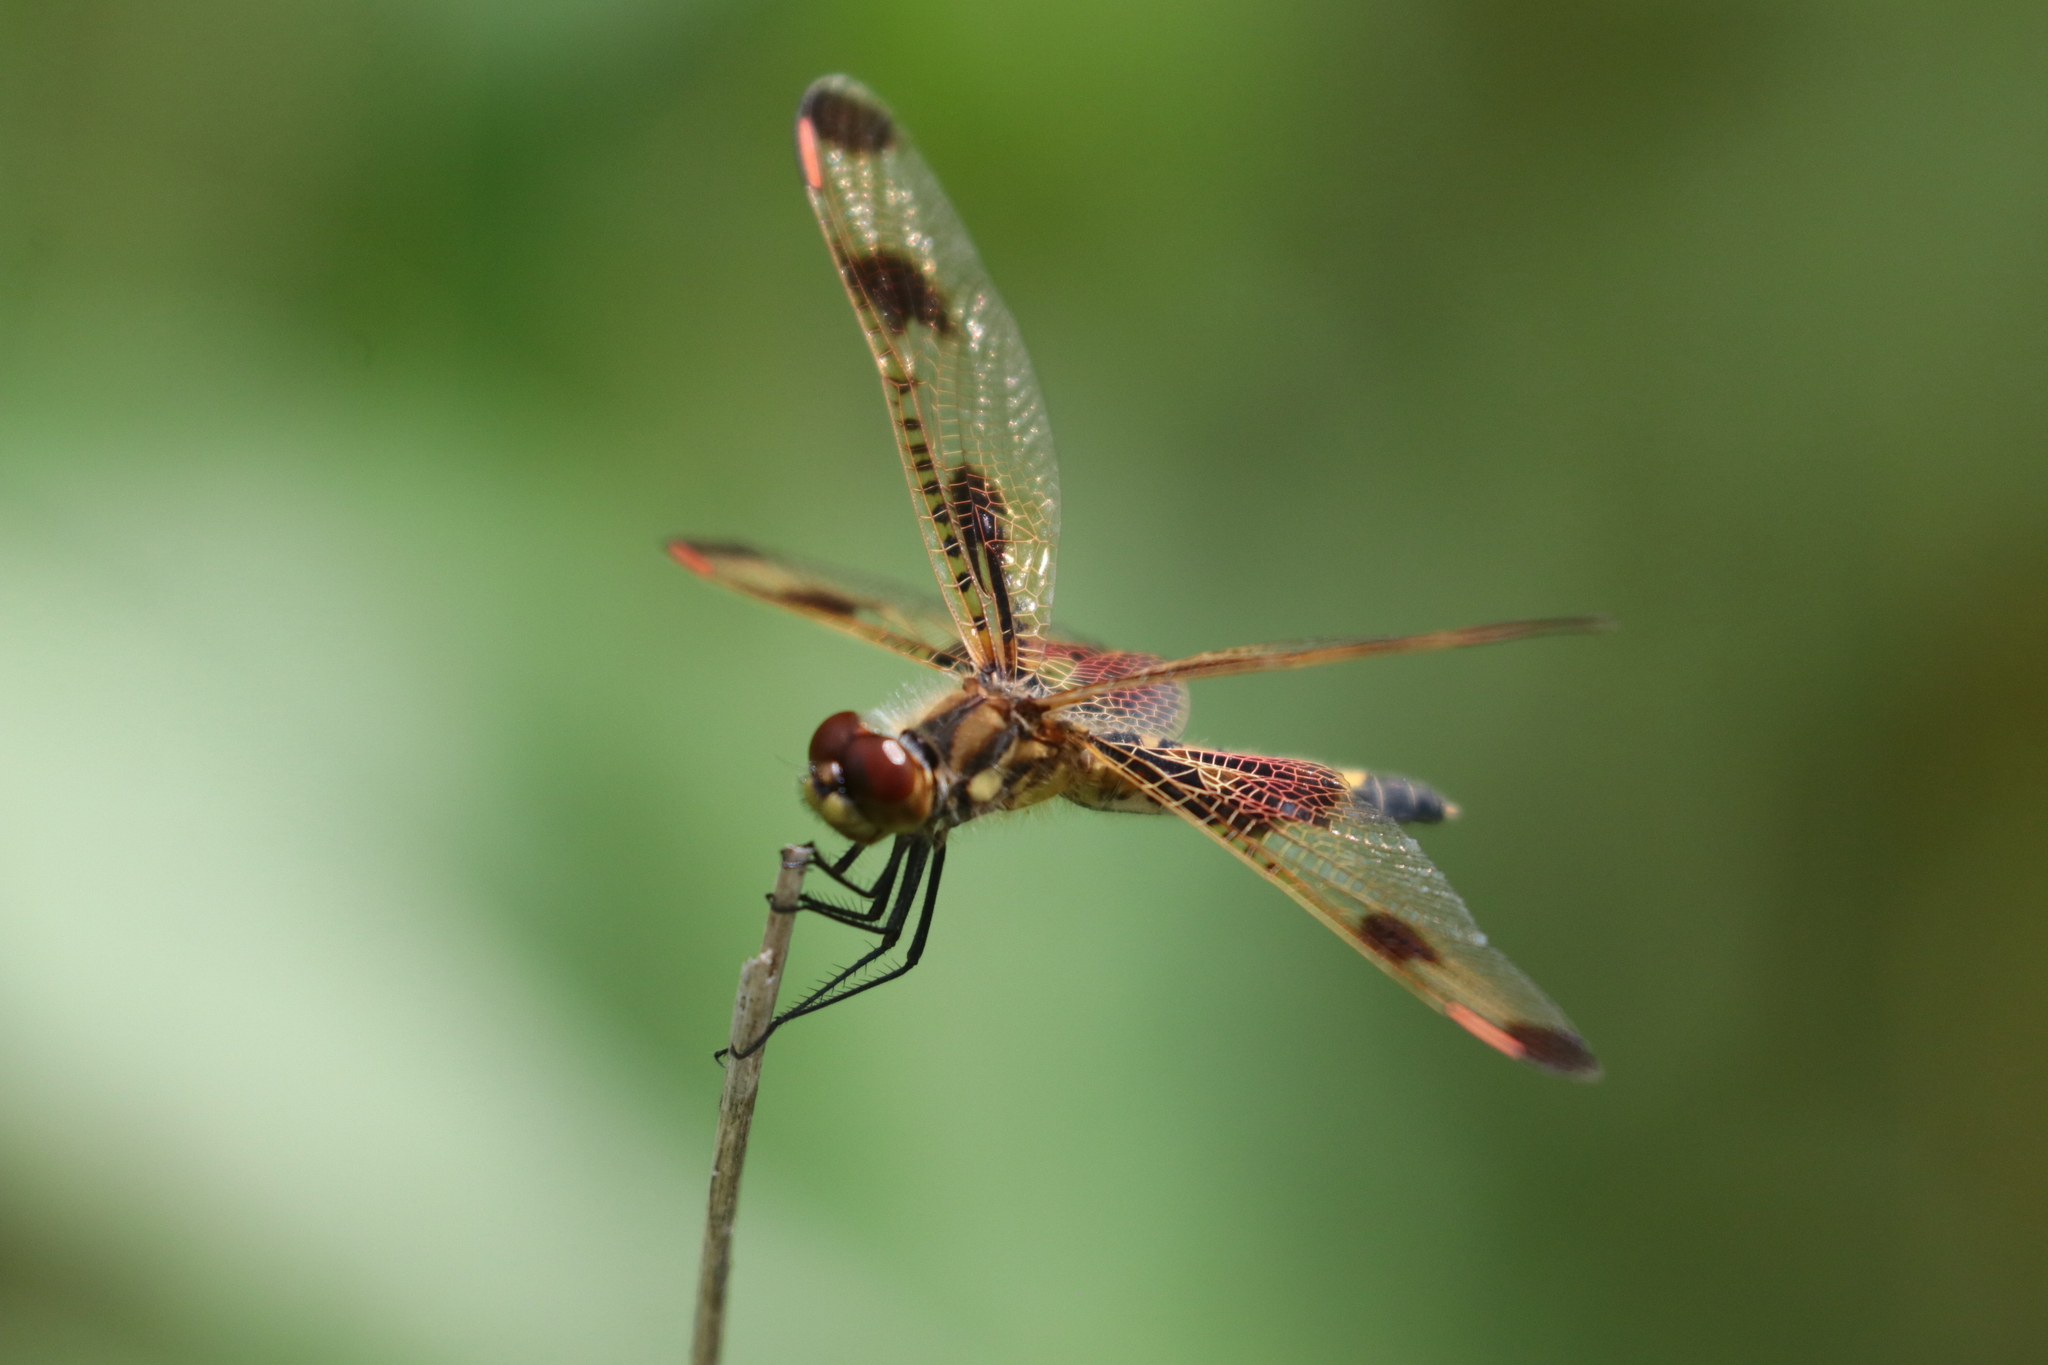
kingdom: Animalia
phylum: Arthropoda
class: Insecta
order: Odonata
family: Libellulidae
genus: Celithemis
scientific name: Celithemis elisa
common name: Calico pennant
